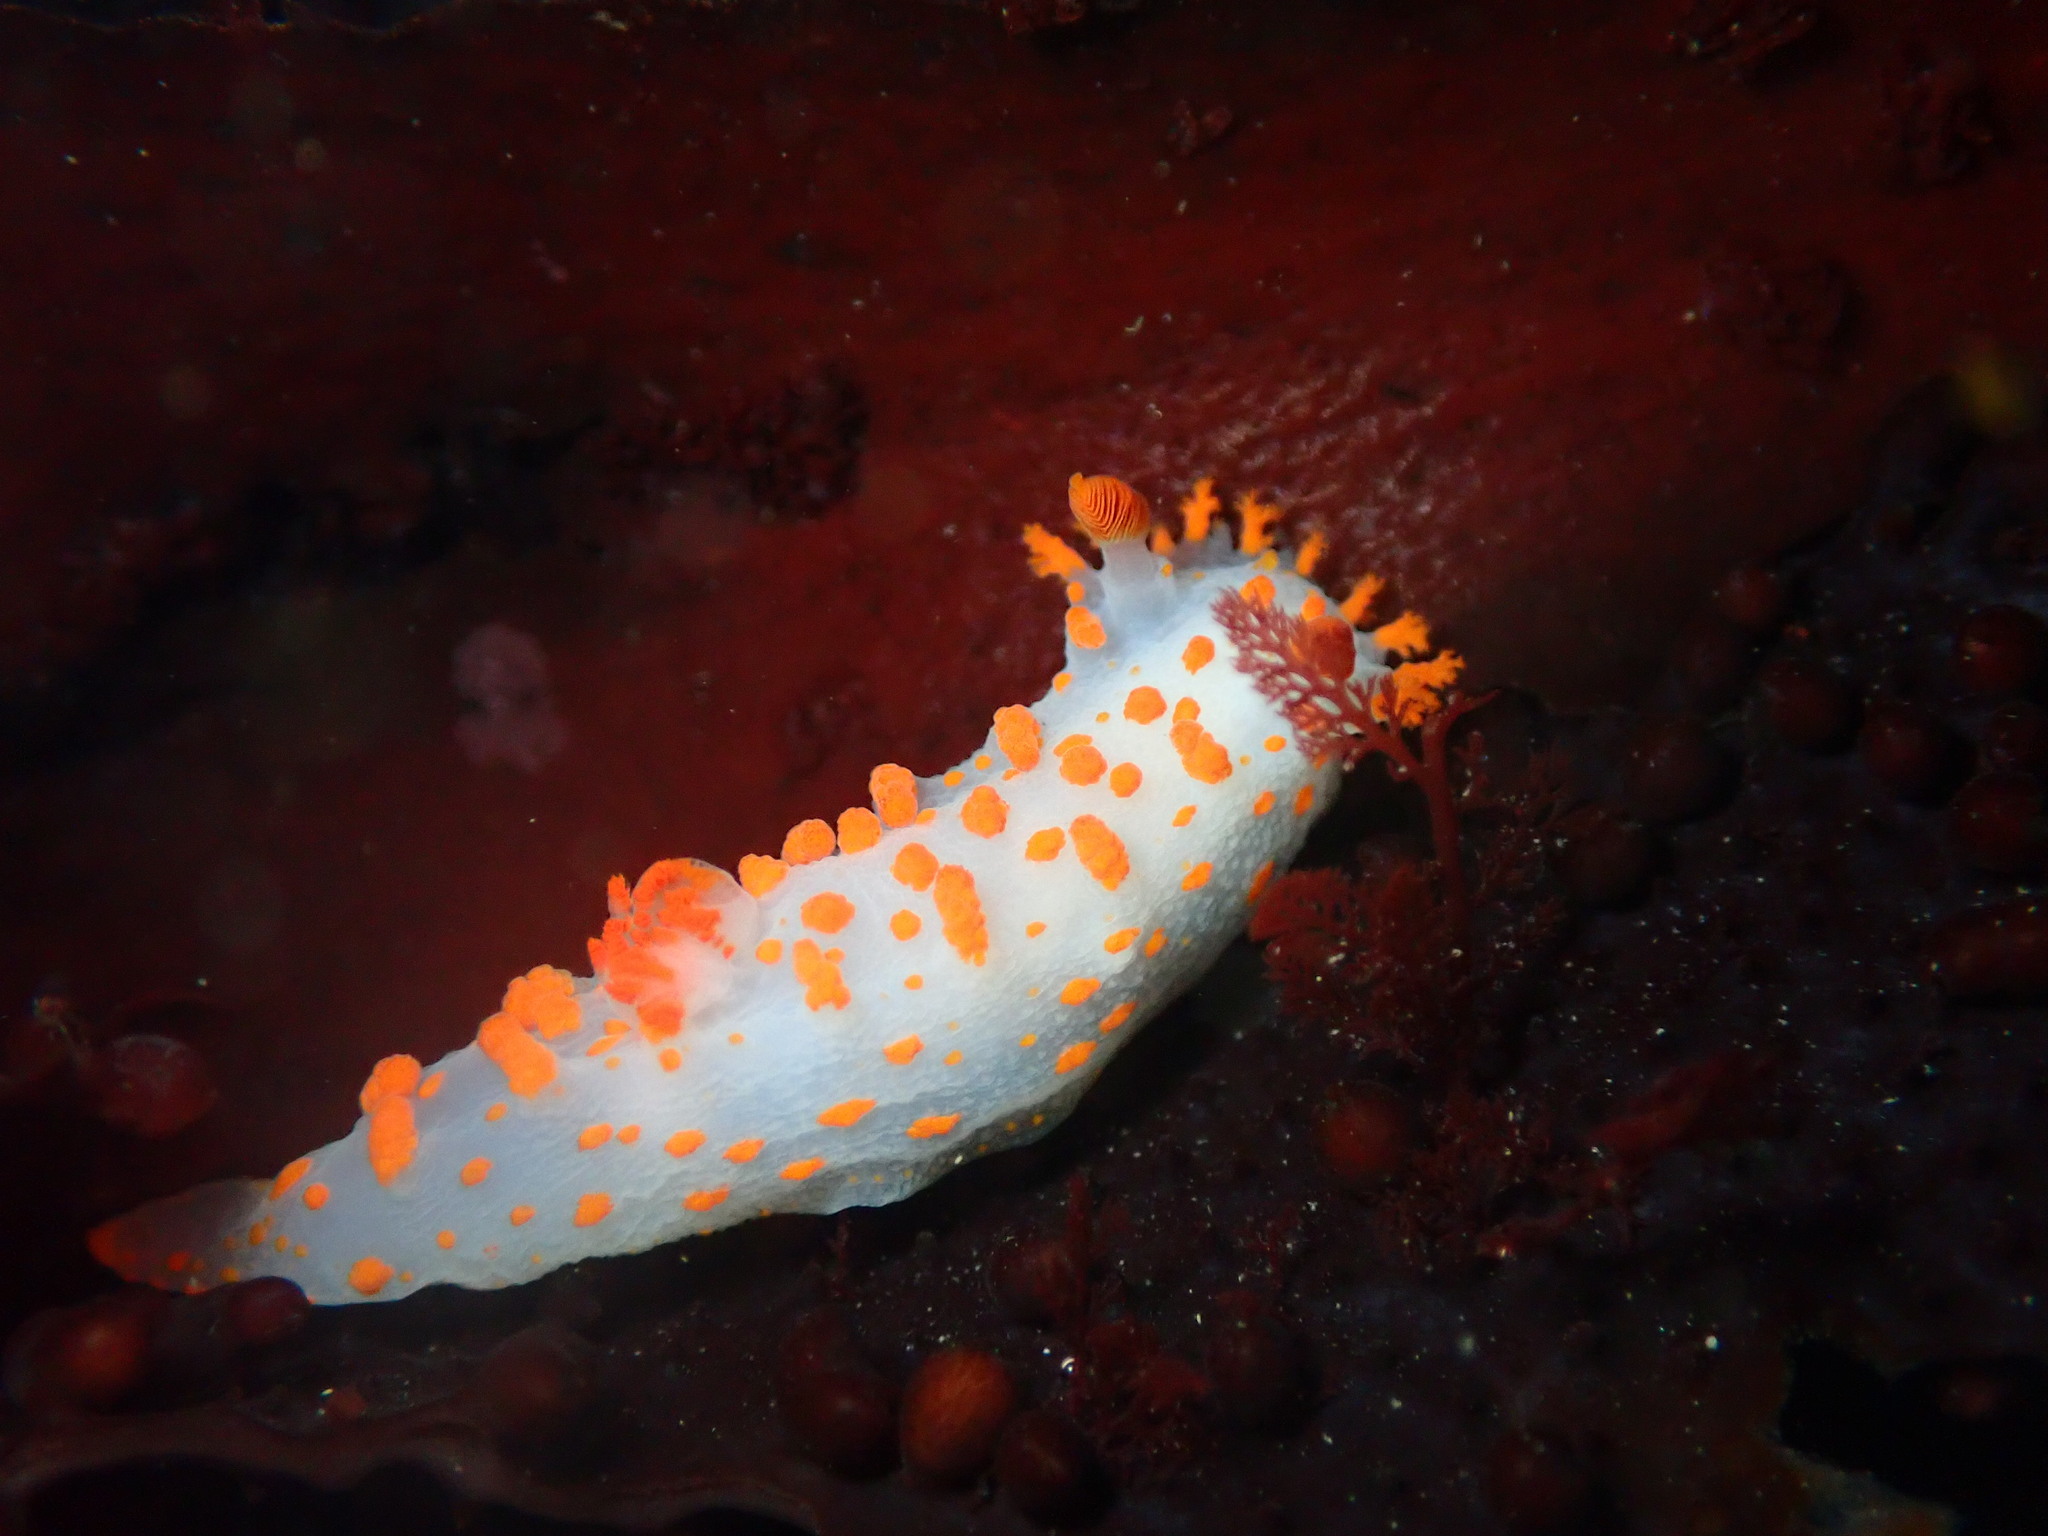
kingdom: Animalia
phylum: Mollusca
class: Gastropoda
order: Nudibranchia
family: Polyceridae
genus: Triopha
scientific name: Triopha catalinae
